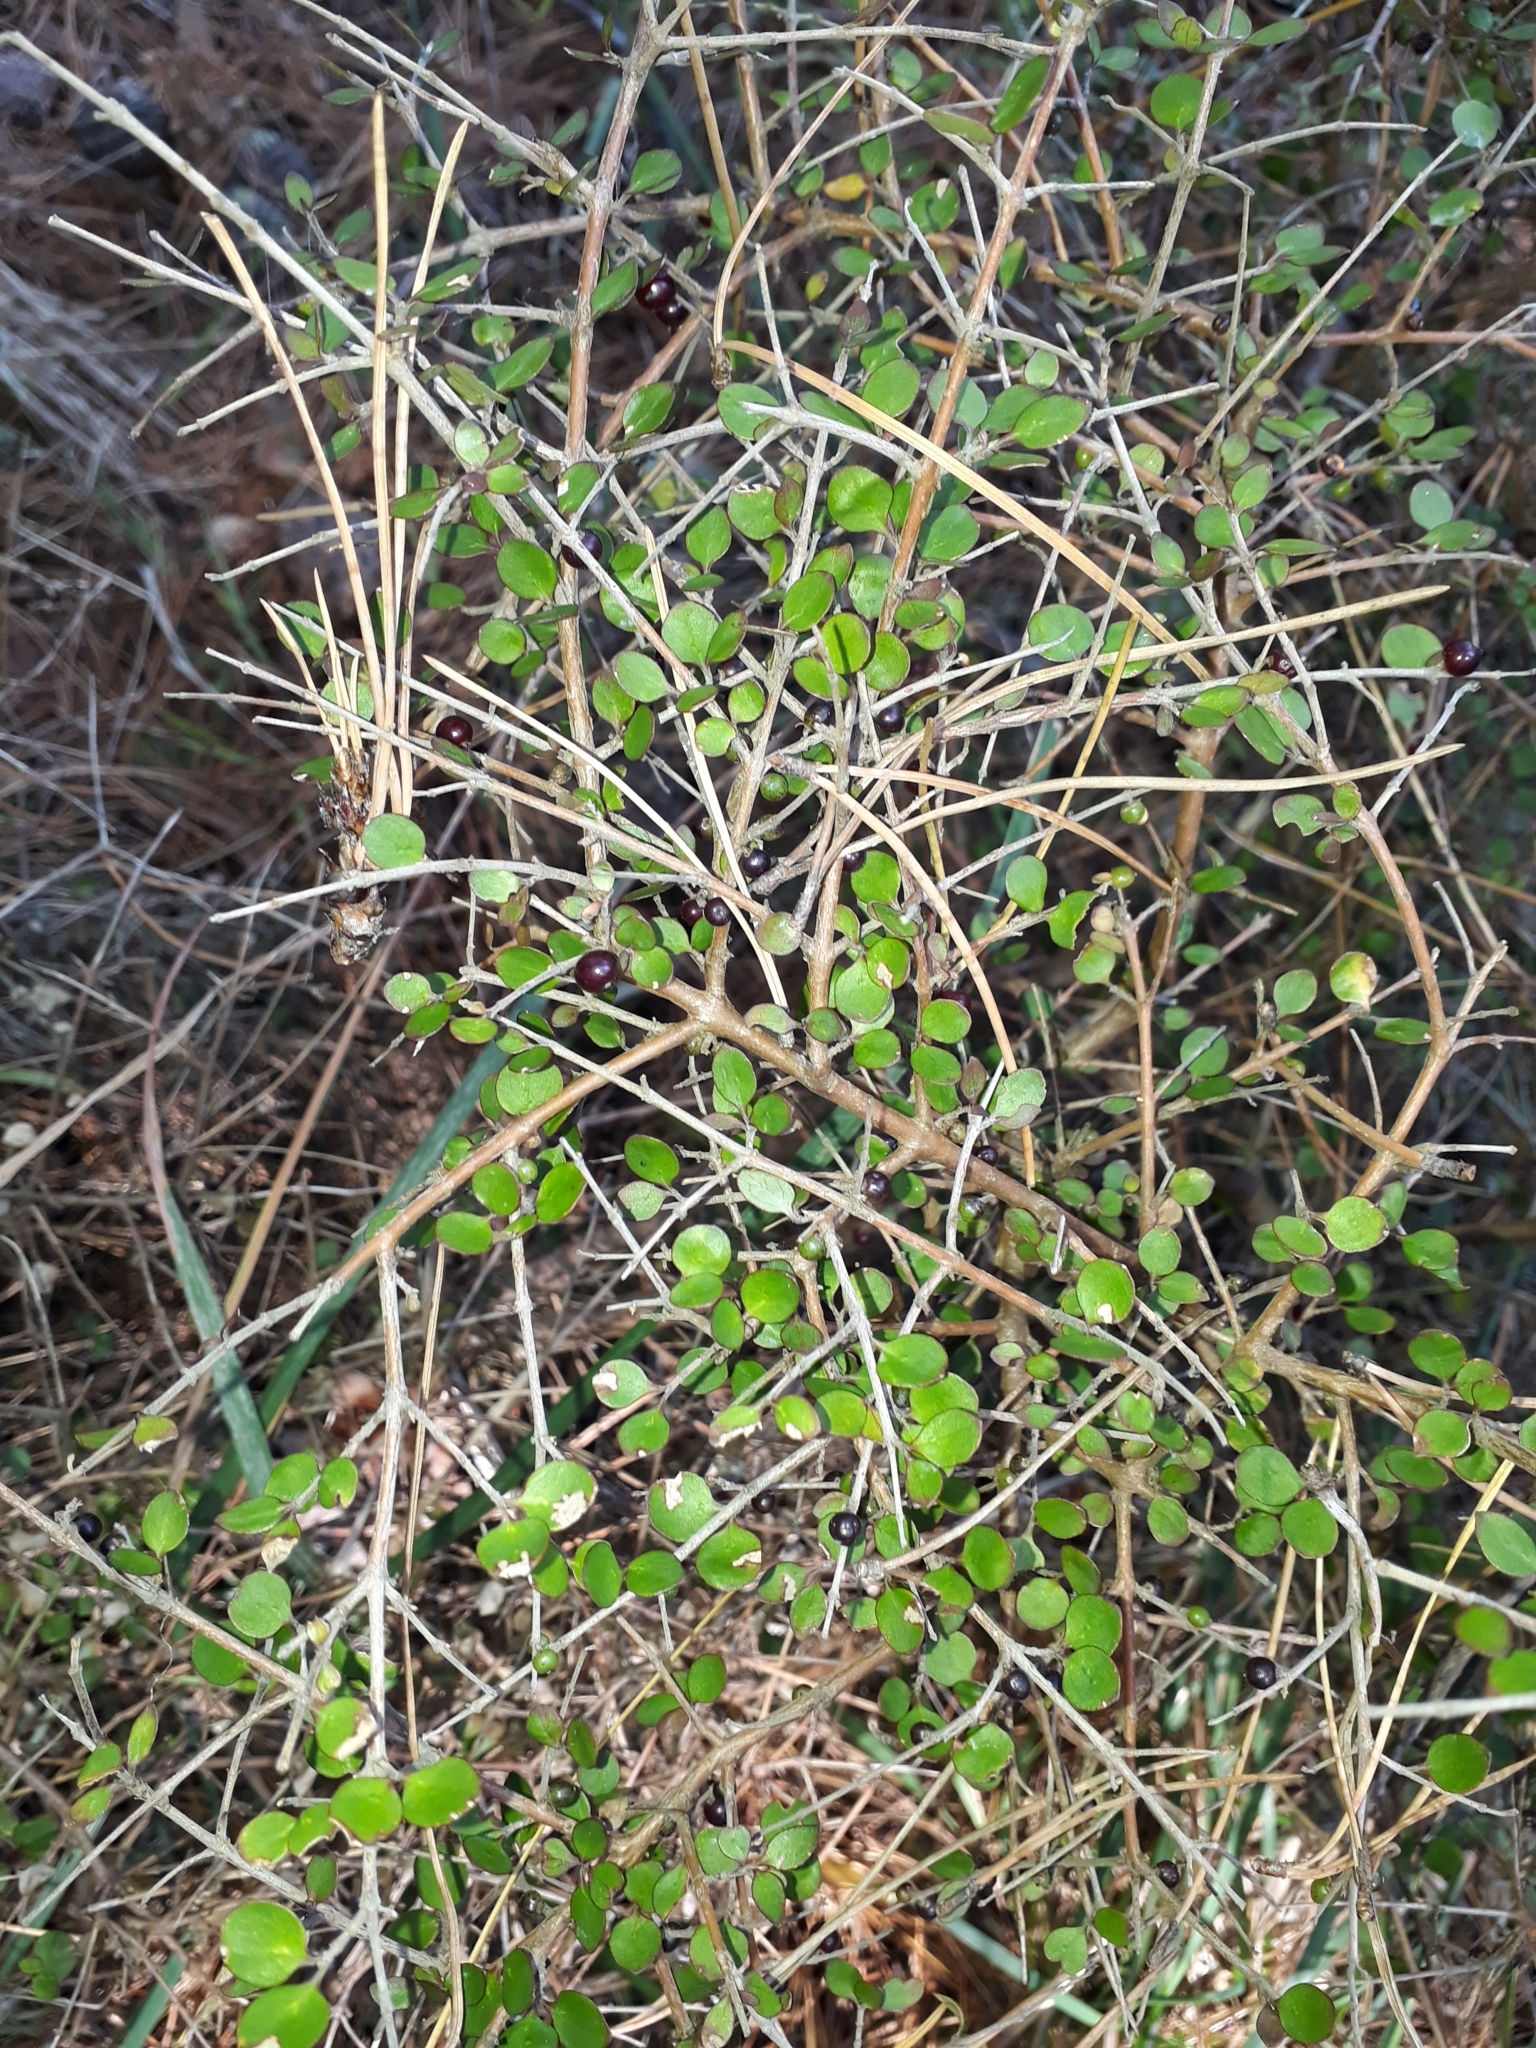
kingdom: Plantae
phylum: Tracheophyta
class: Magnoliopsida
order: Gentianales
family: Rubiaceae
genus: Coprosma
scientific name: Coprosma rhamnoides
